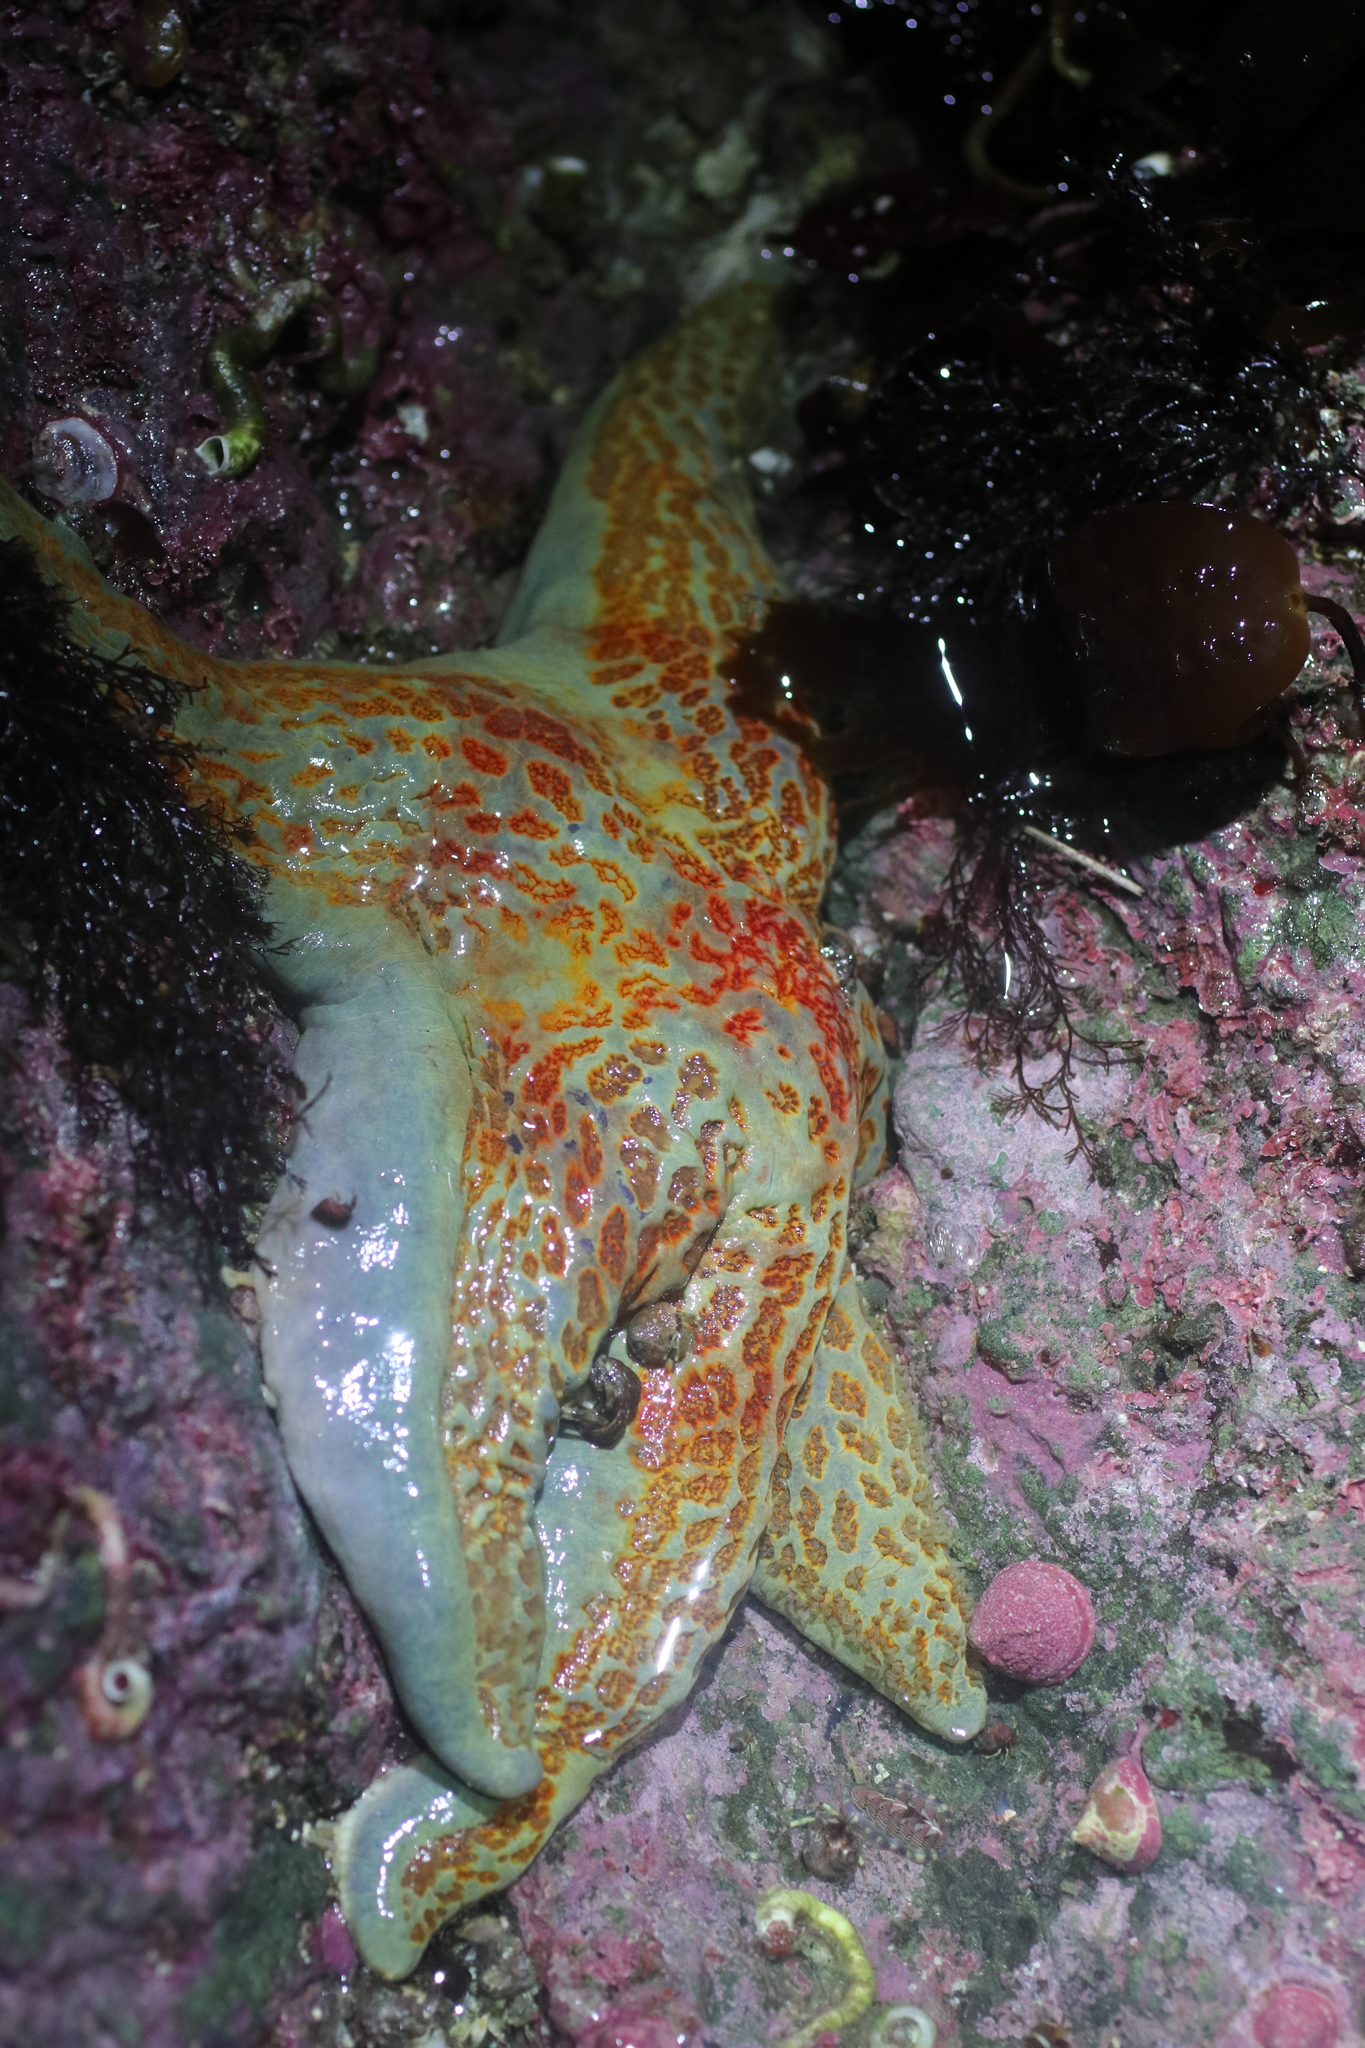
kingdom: Animalia
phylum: Echinodermata
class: Asteroidea
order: Valvatida
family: Asteropseidae
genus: Dermasterias
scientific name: Dermasterias imbricata
